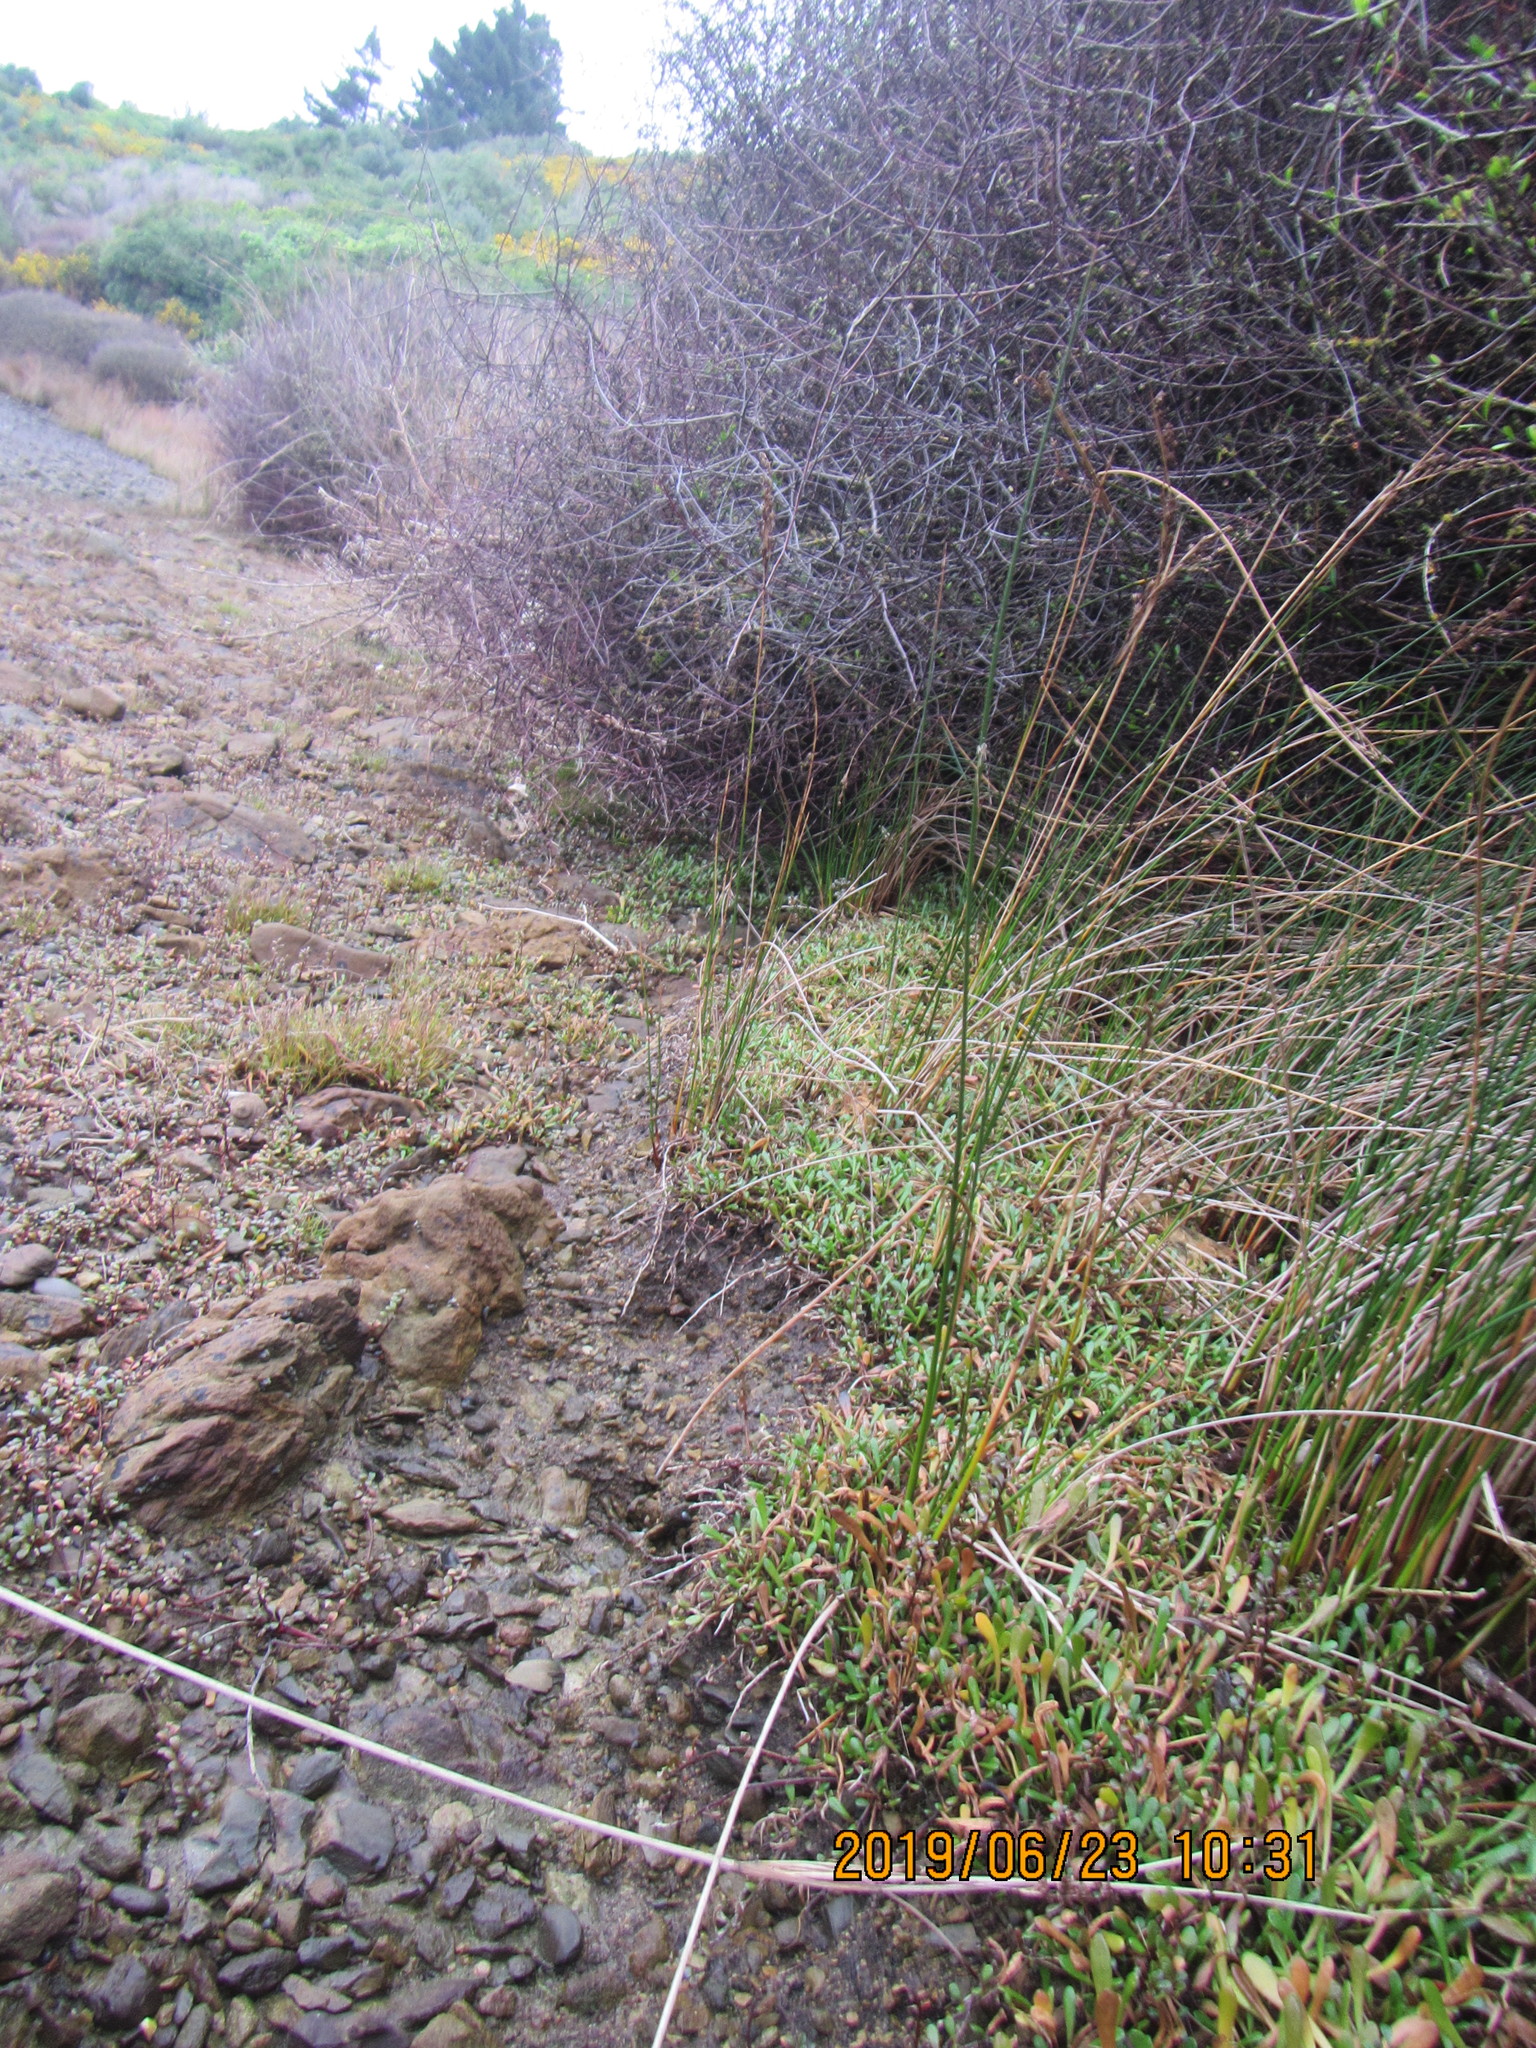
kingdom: Plantae
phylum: Tracheophyta
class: Magnoliopsida
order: Asterales
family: Goodeniaceae
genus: Goodenia
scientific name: Goodenia radicans
